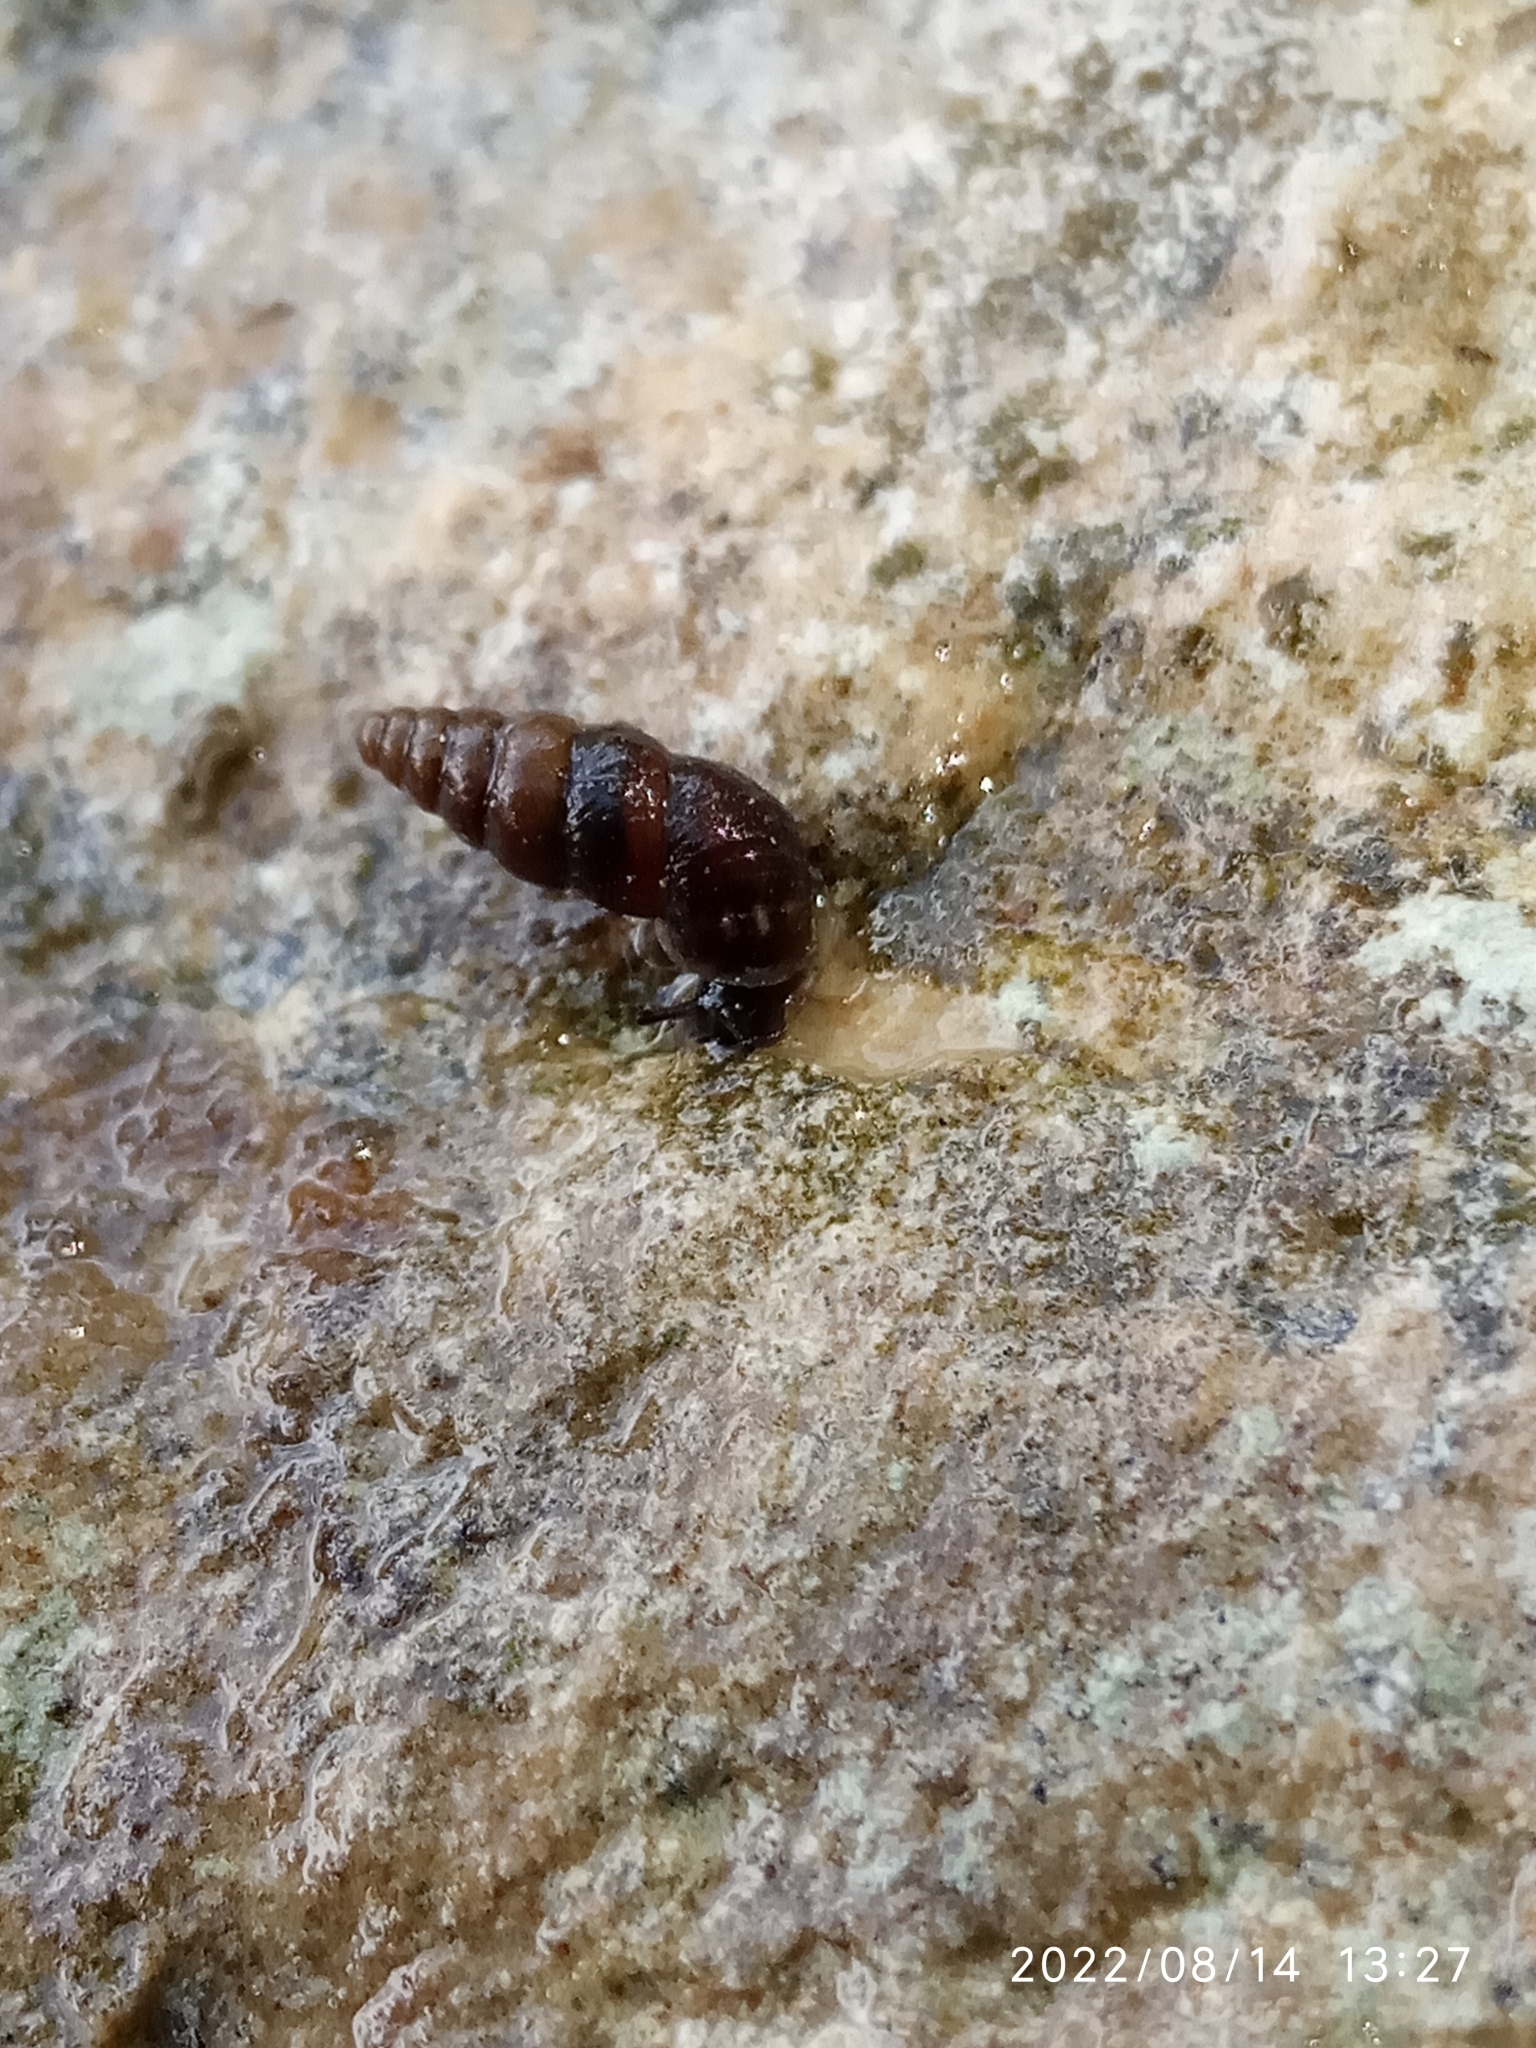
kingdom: Animalia
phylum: Mollusca
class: Gastropoda
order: Stylommatophora
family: Chondrinidae
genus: Chondrina
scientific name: Chondrina avenacea
